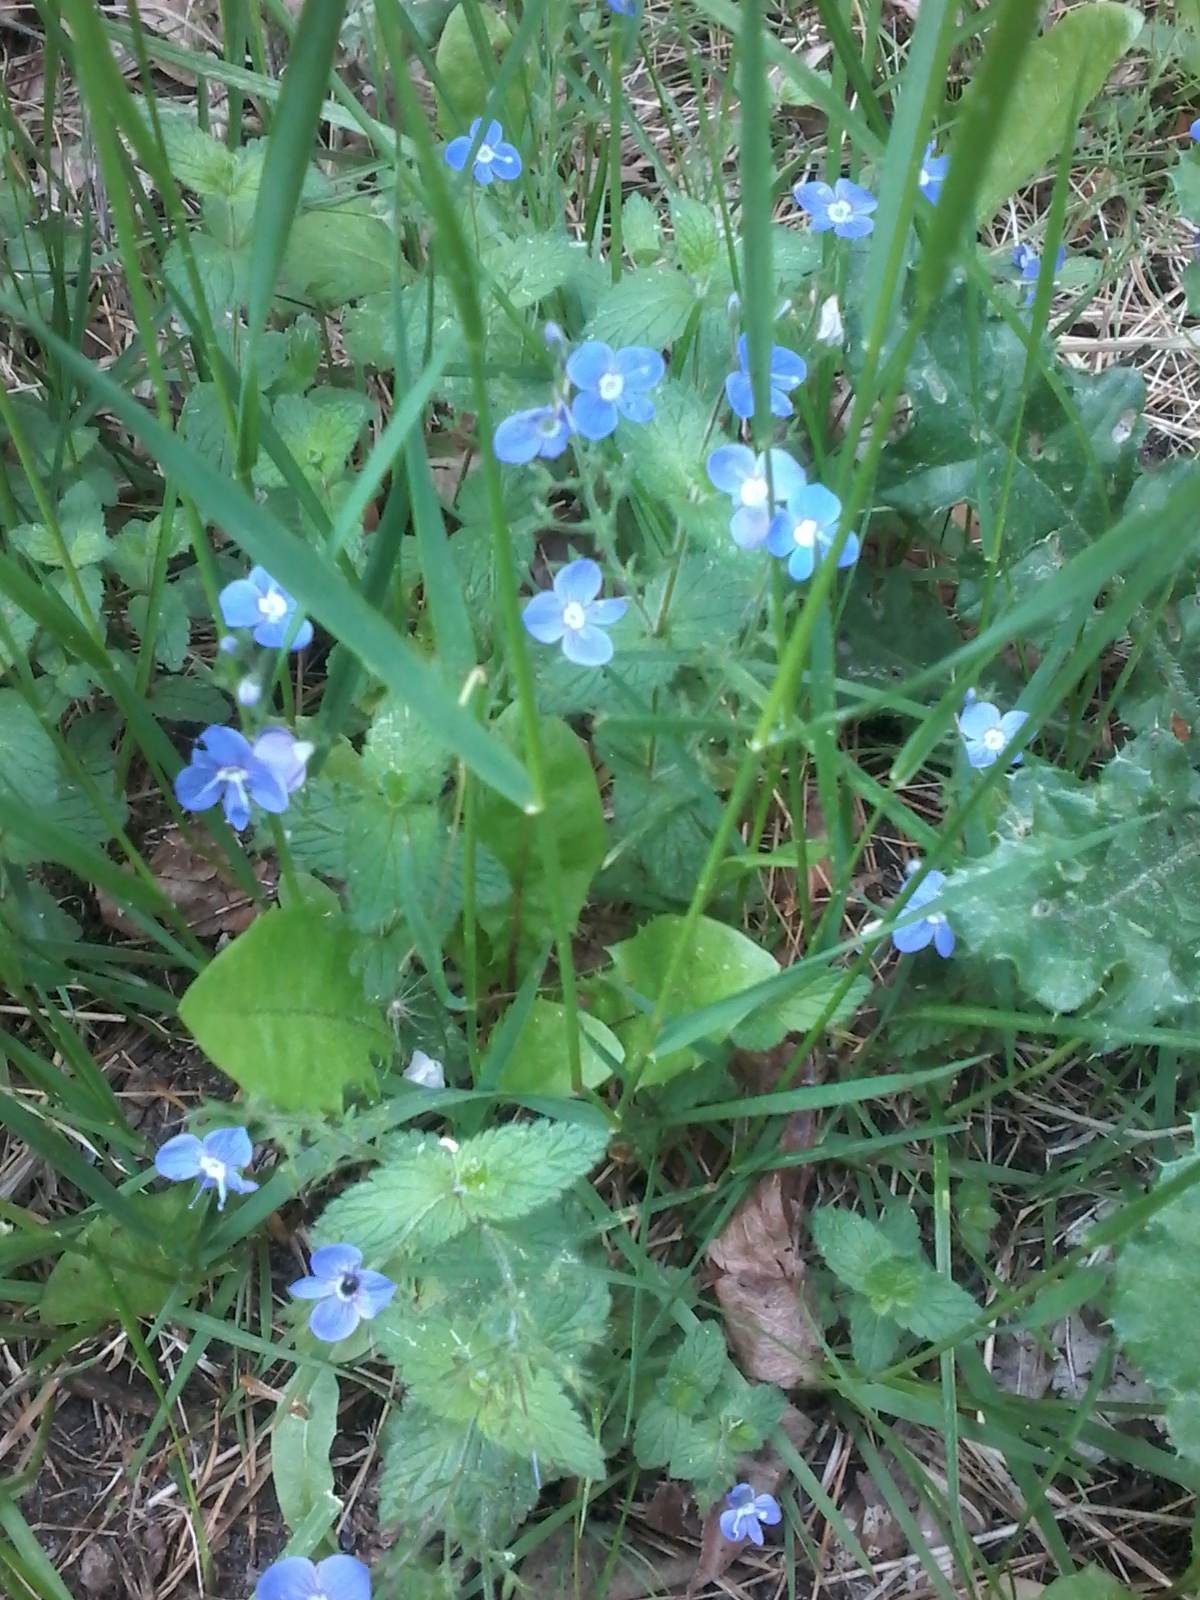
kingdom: Plantae
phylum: Tracheophyta
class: Magnoliopsida
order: Lamiales
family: Plantaginaceae
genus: Veronica
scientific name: Veronica chamaedrys
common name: Germander speedwell
